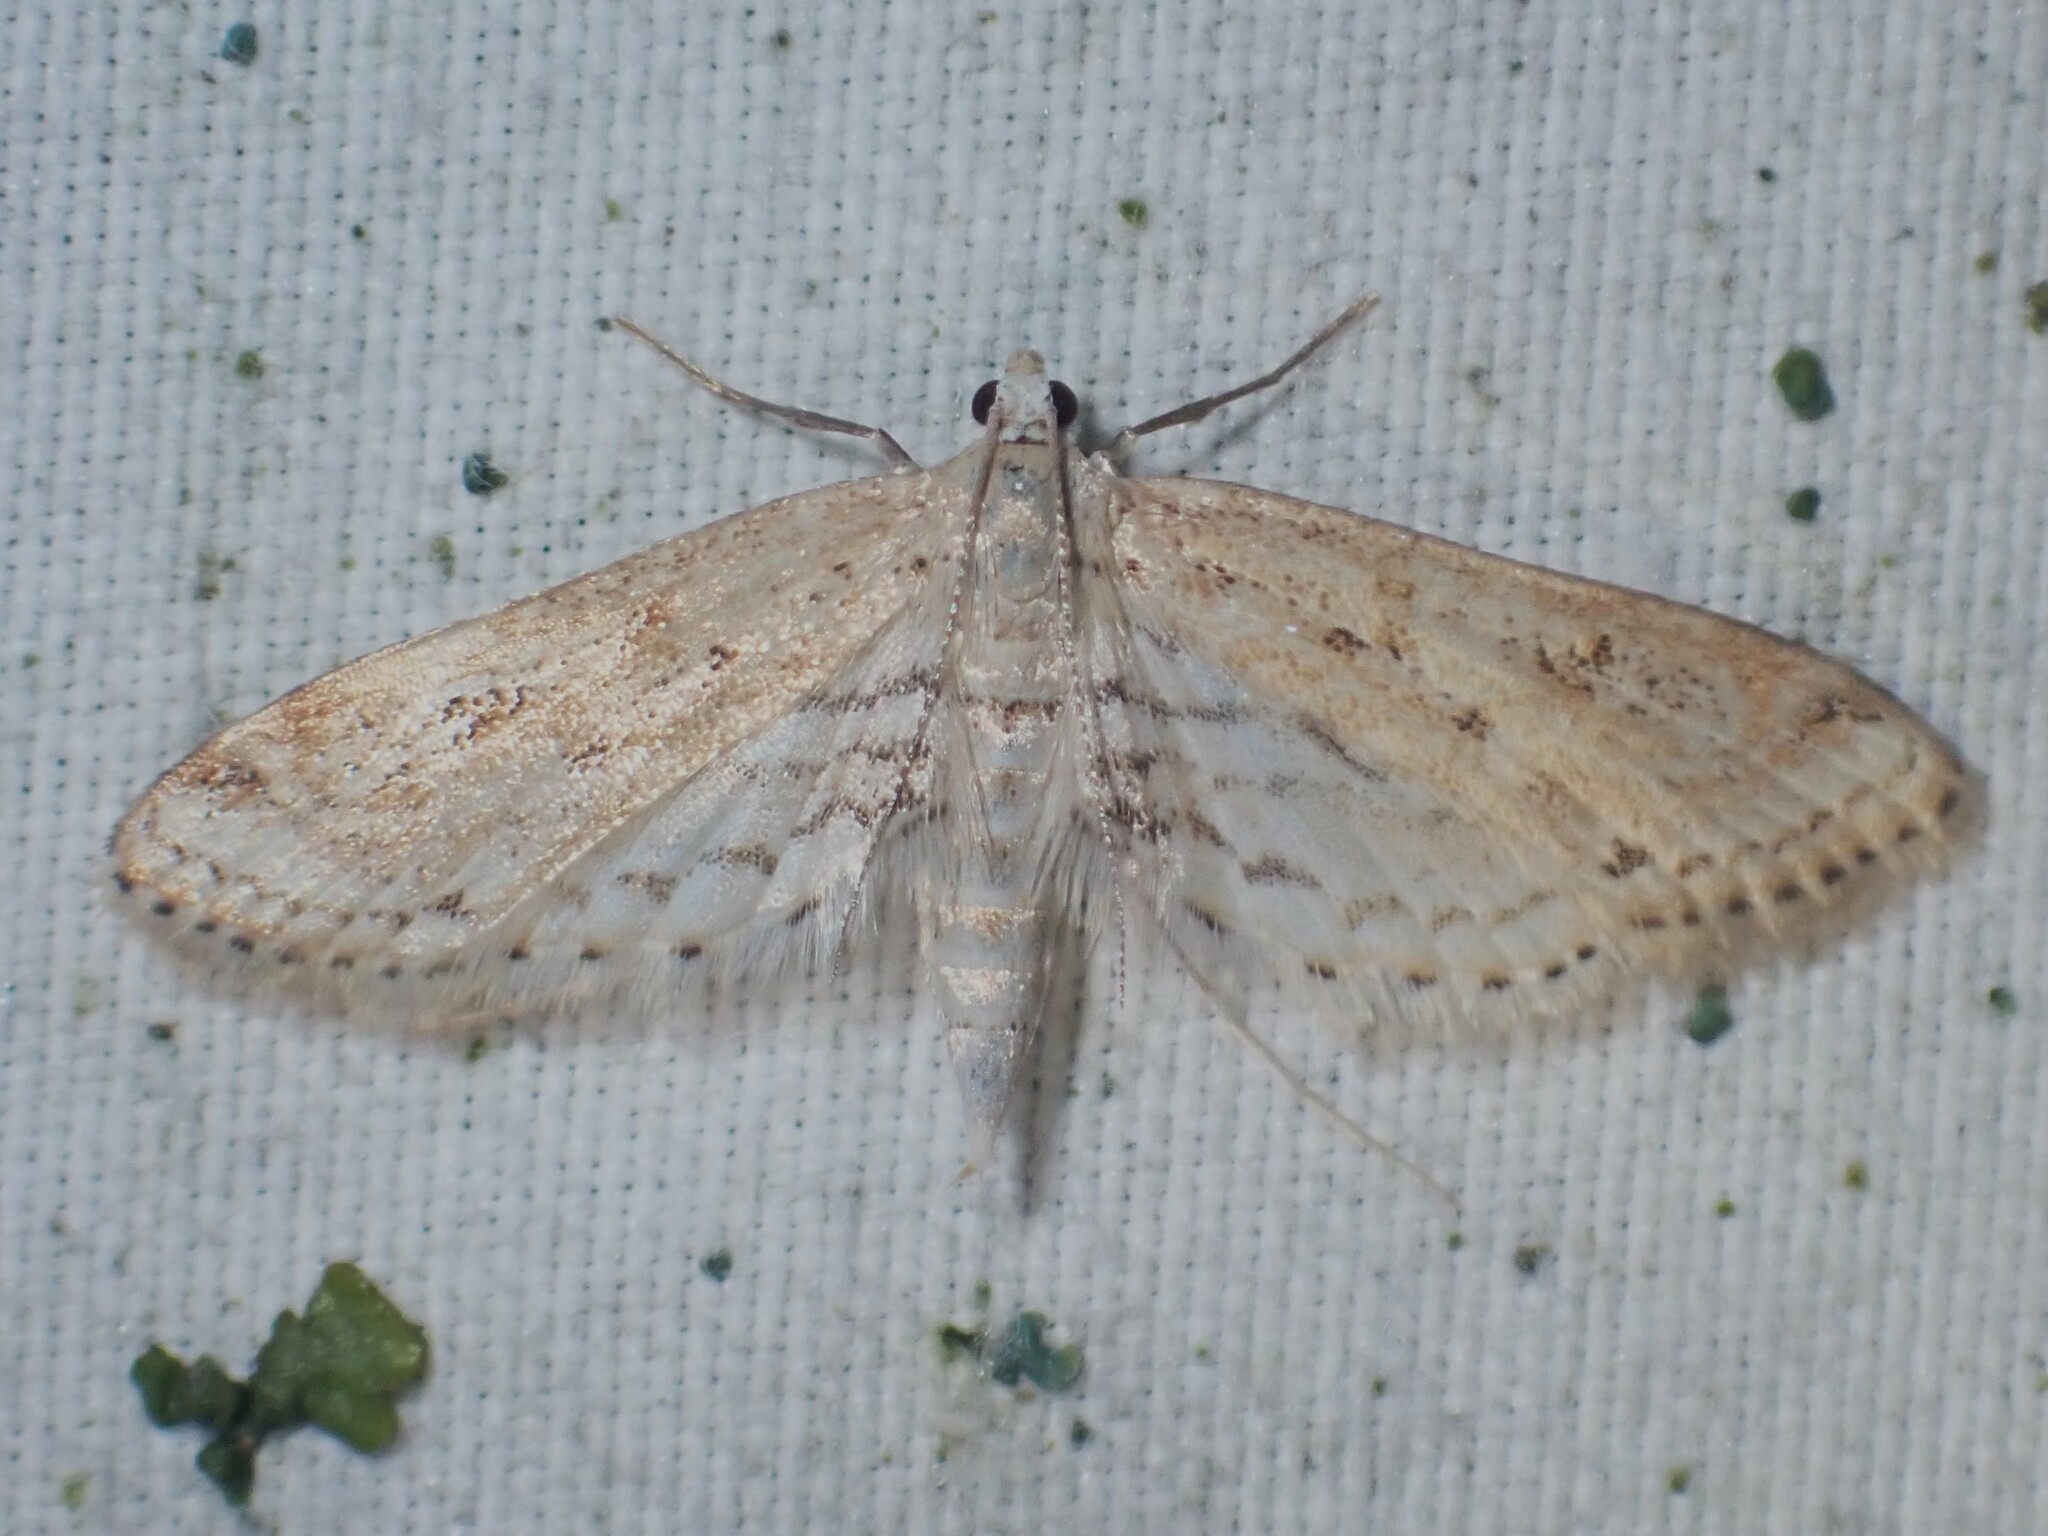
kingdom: Animalia
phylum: Arthropoda
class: Insecta
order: Lepidoptera
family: Crambidae
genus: Parapoynx
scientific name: Parapoynx allionealis
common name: Bladderwort casemaker
